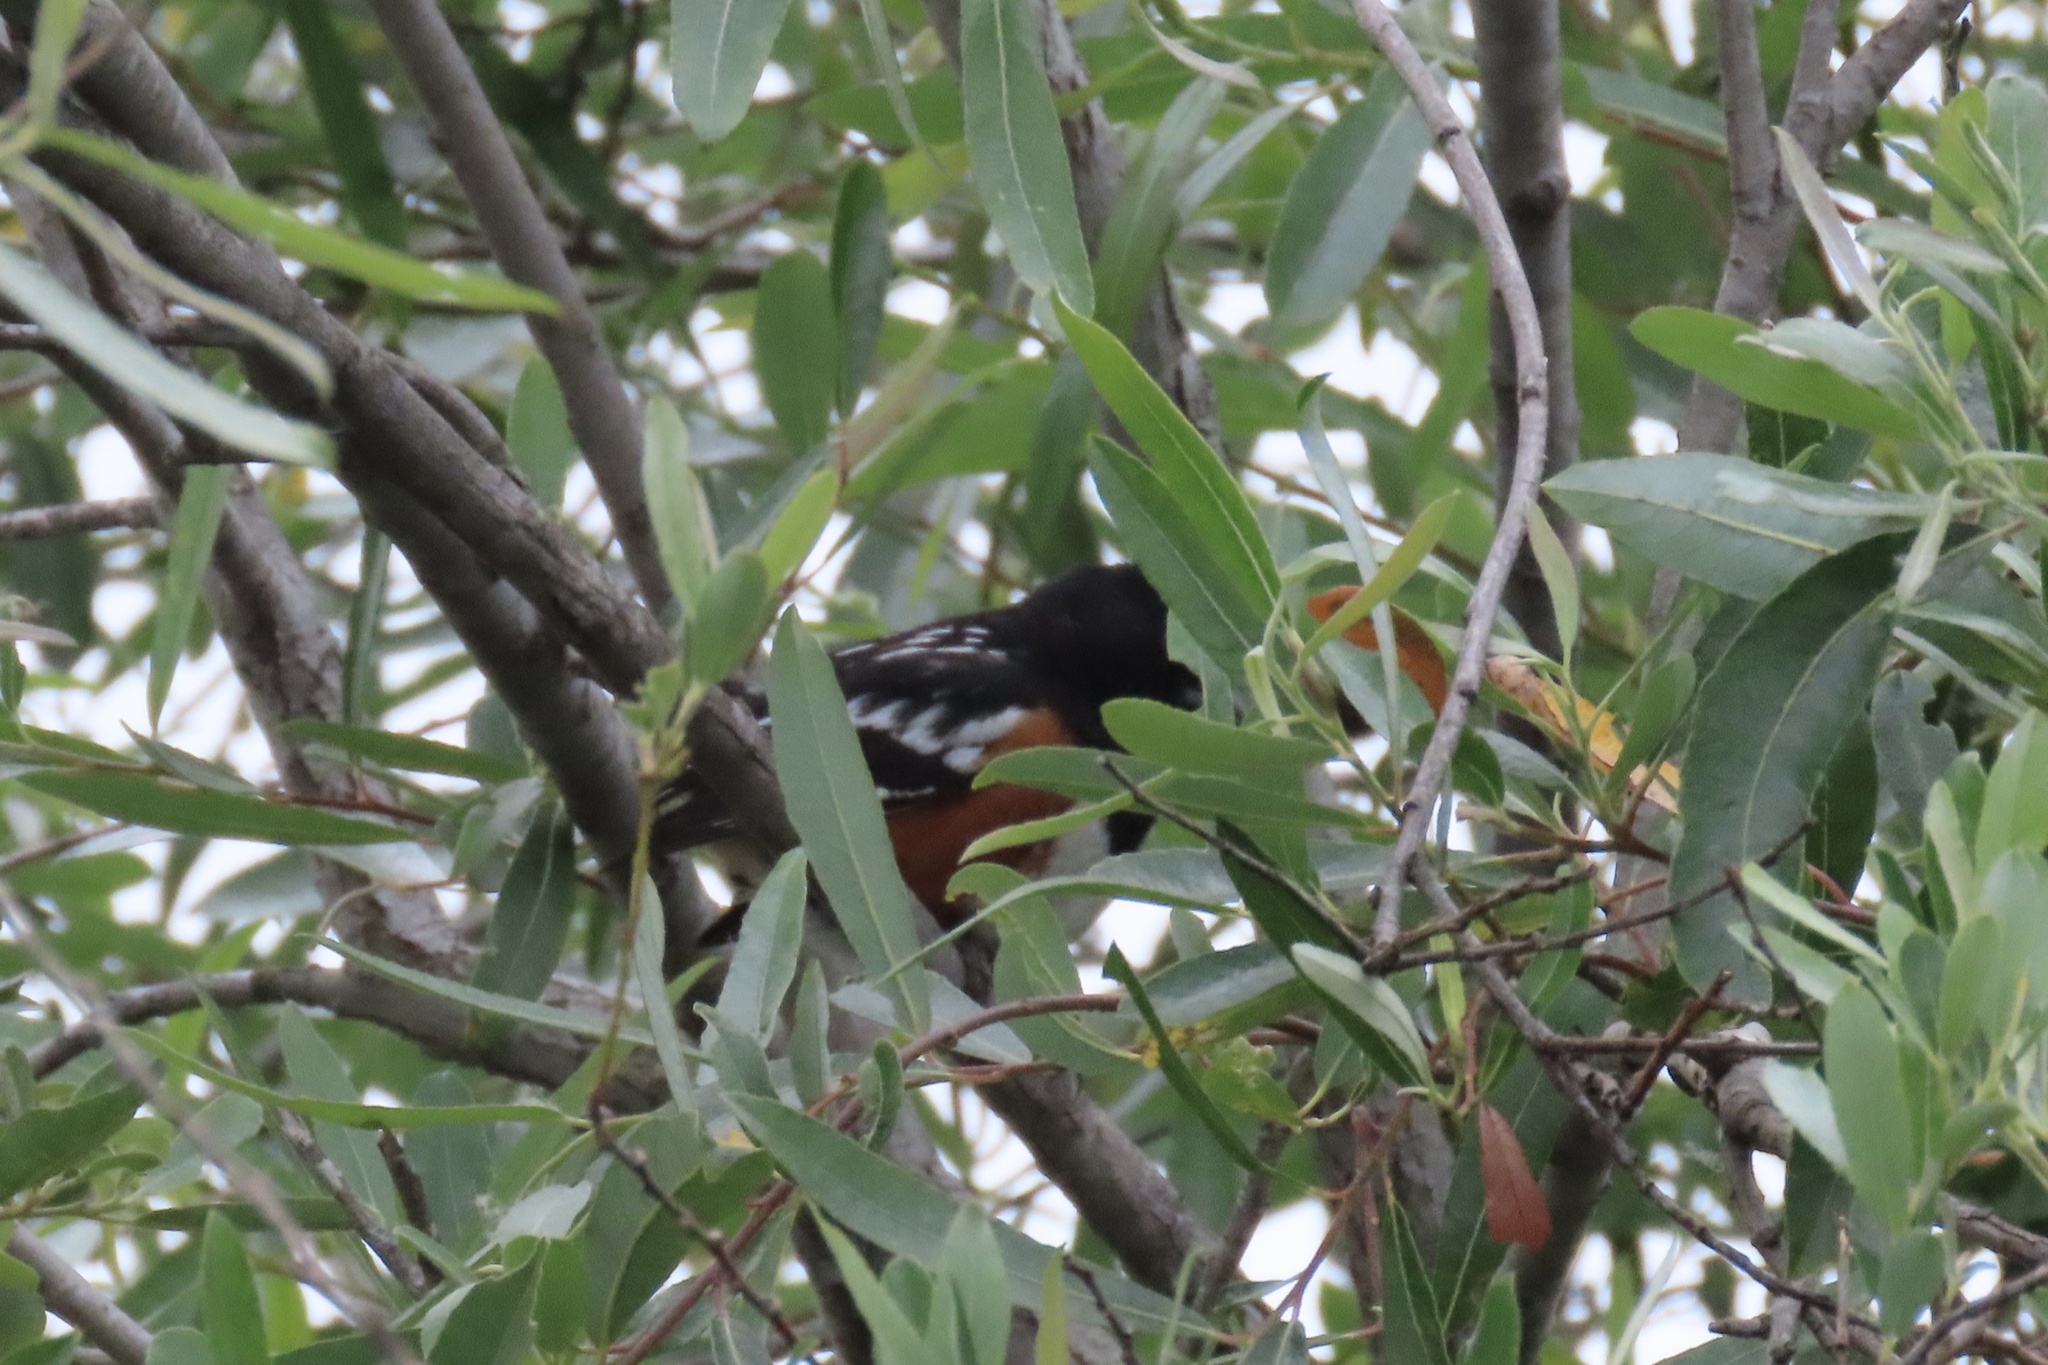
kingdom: Animalia
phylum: Chordata
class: Aves
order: Passeriformes
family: Passerellidae
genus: Pipilo
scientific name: Pipilo maculatus
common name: Spotted towhee
